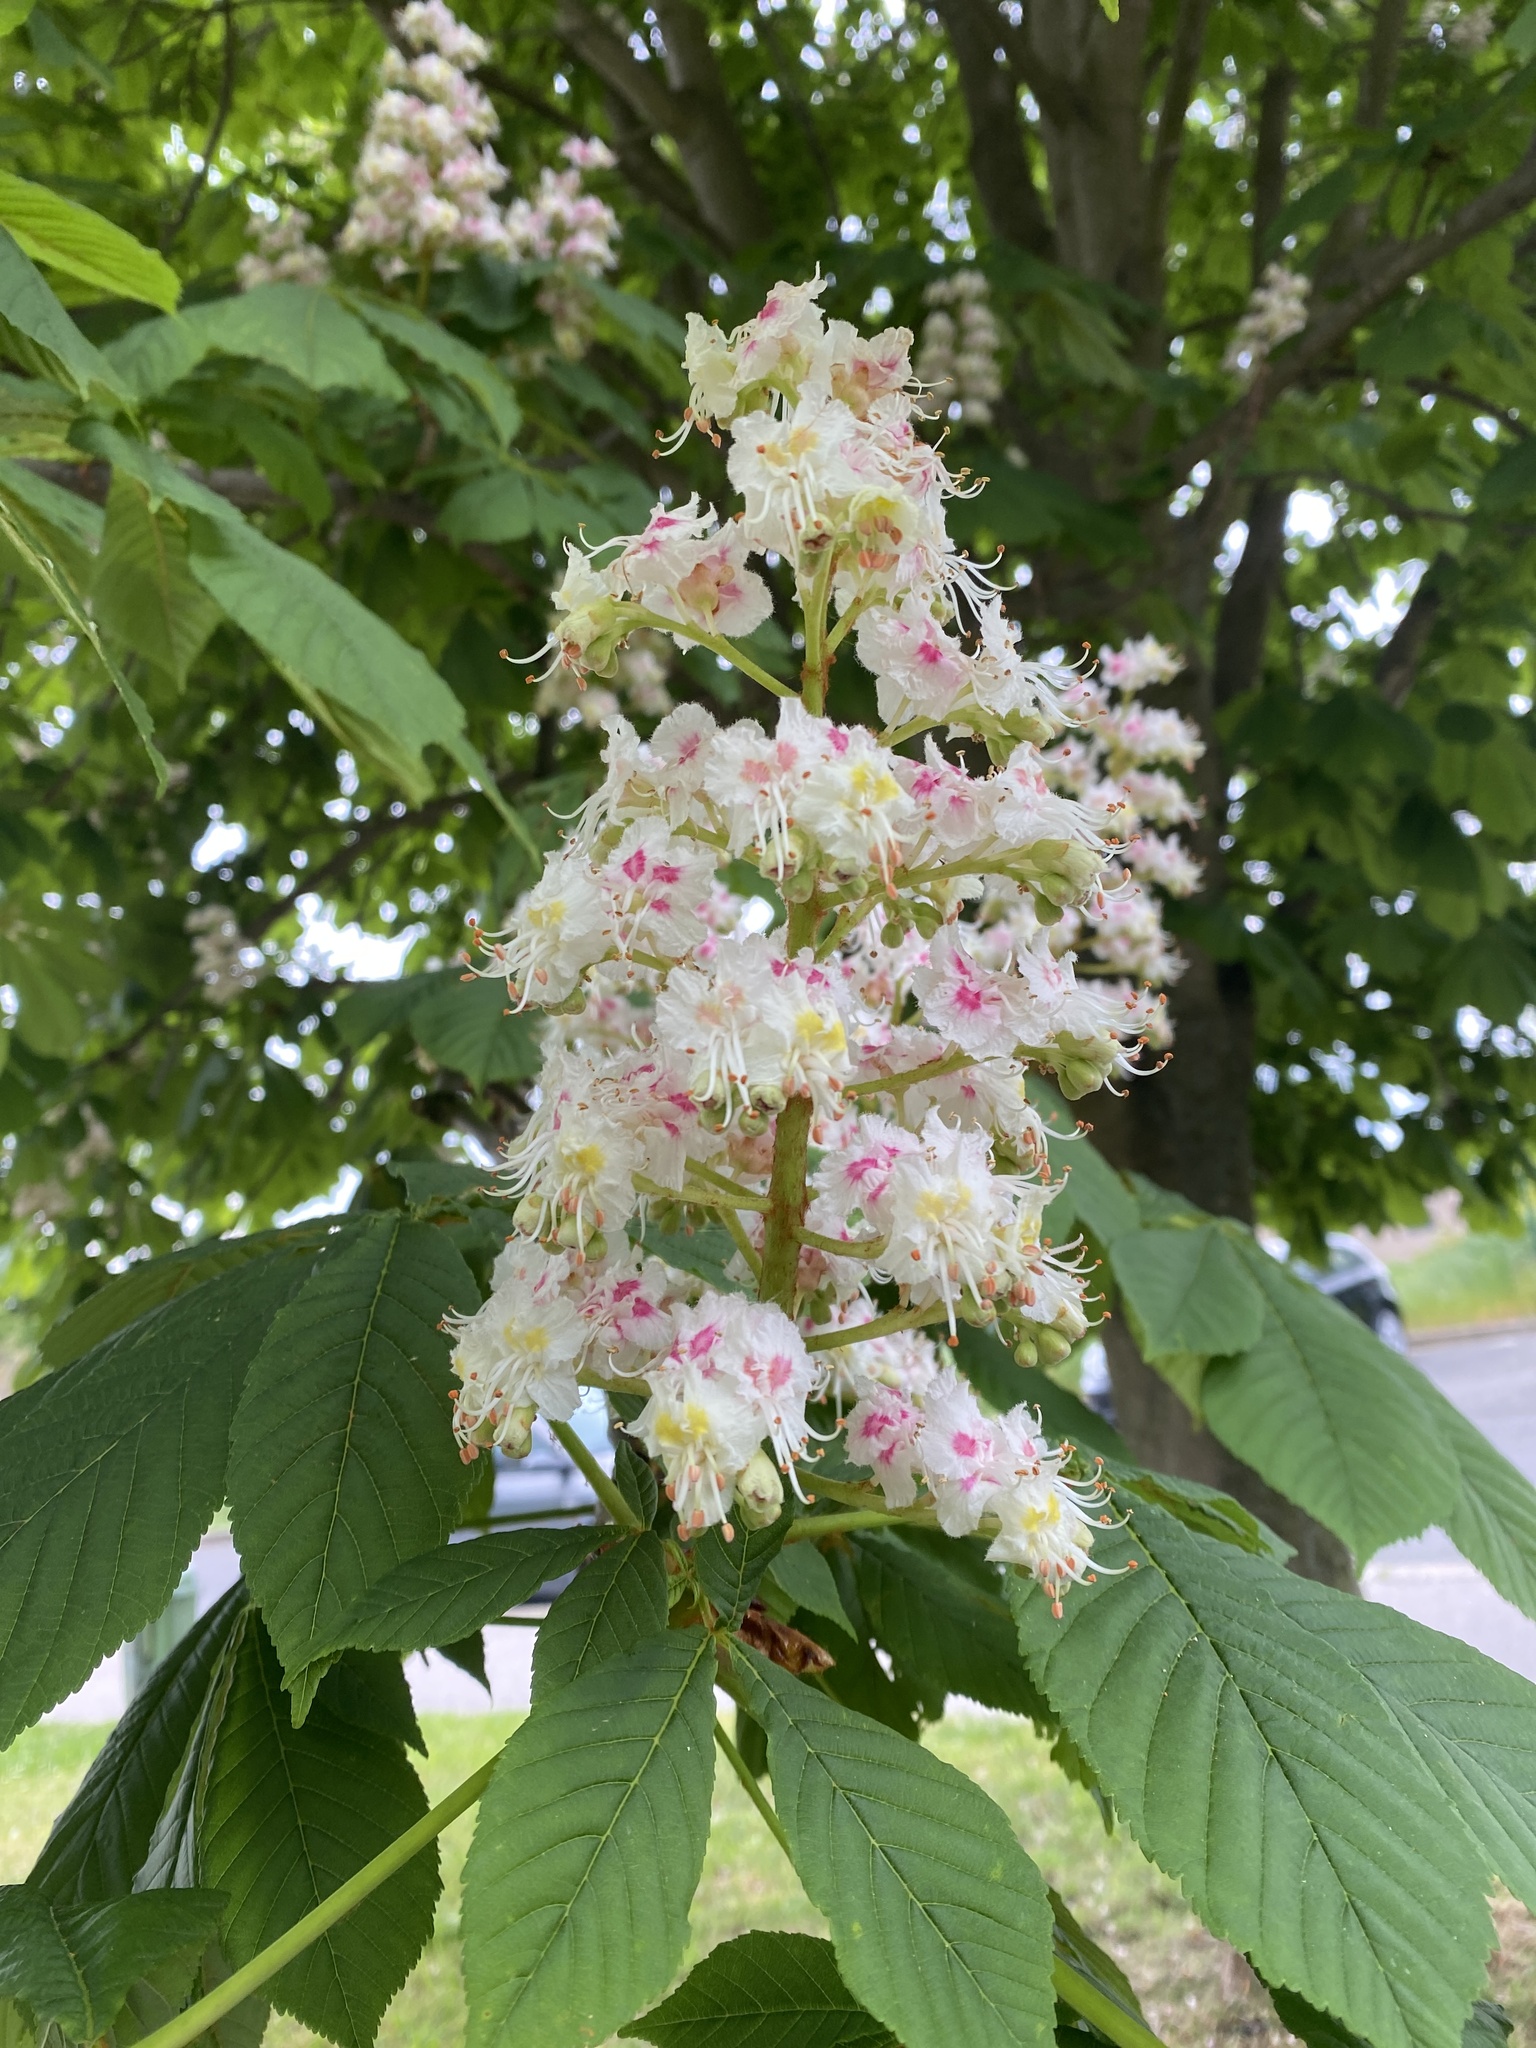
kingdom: Plantae
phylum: Tracheophyta
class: Magnoliopsida
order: Sapindales
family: Sapindaceae
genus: Aesculus
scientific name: Aesculus hippocastanum
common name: Horse-chestnut
